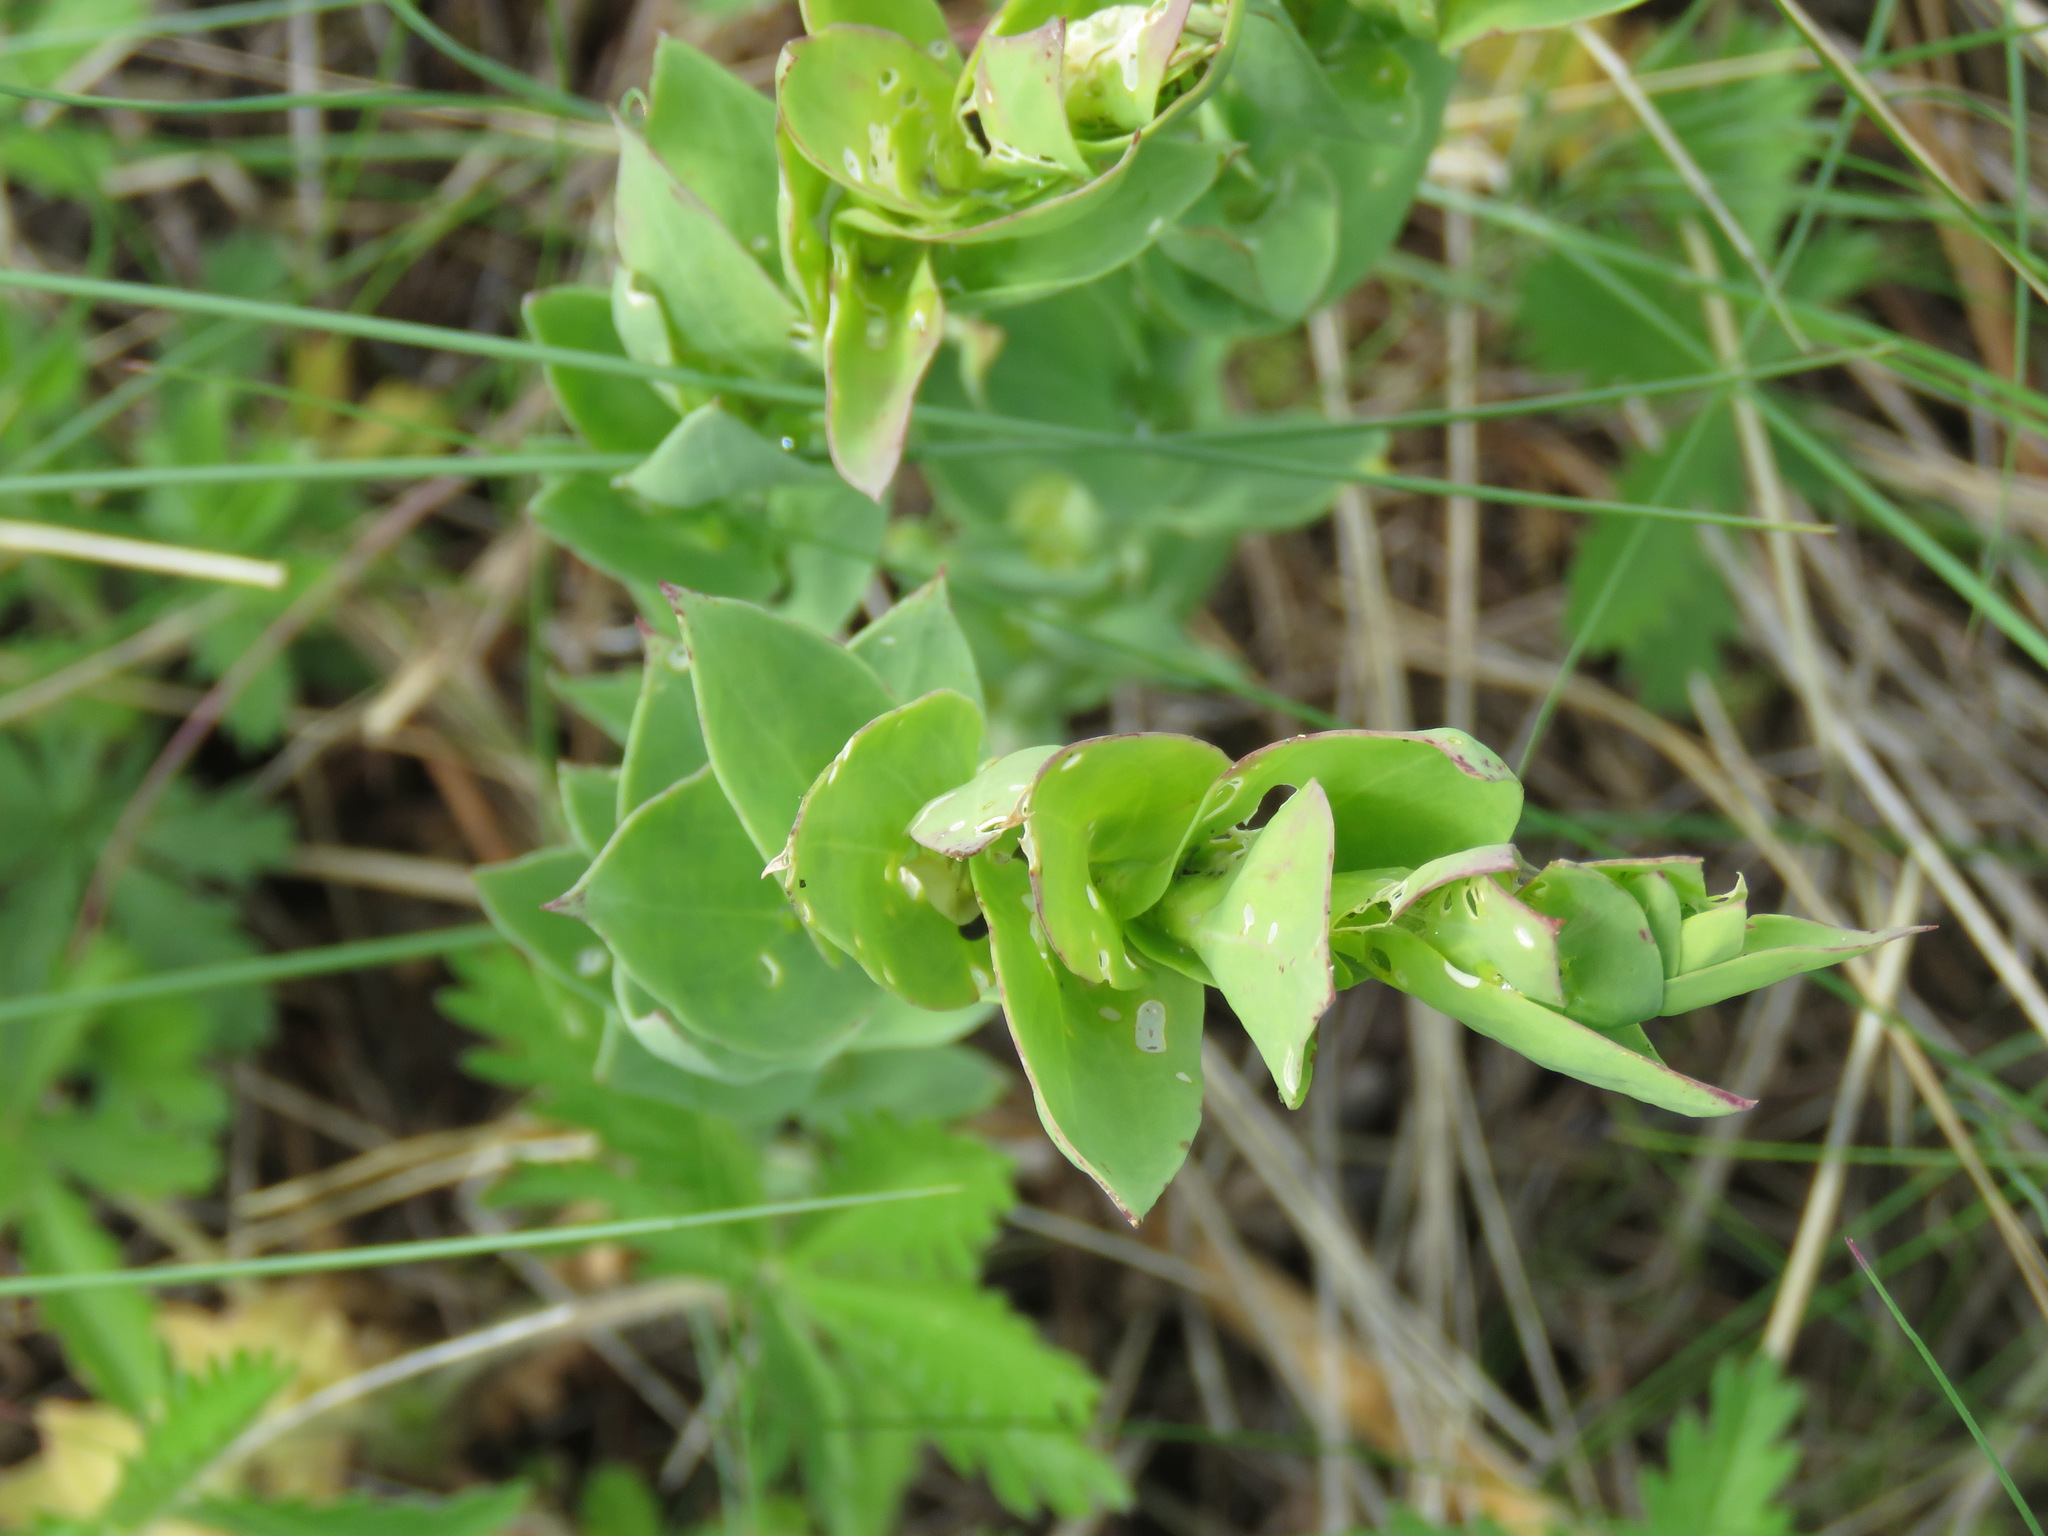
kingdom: Plantae
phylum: Tracheophyta
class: Magnoliopsida
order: Lamiales
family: Plantaginaceae
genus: Linaria
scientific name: Linaria dalmatica
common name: Dalmatian toadflax
